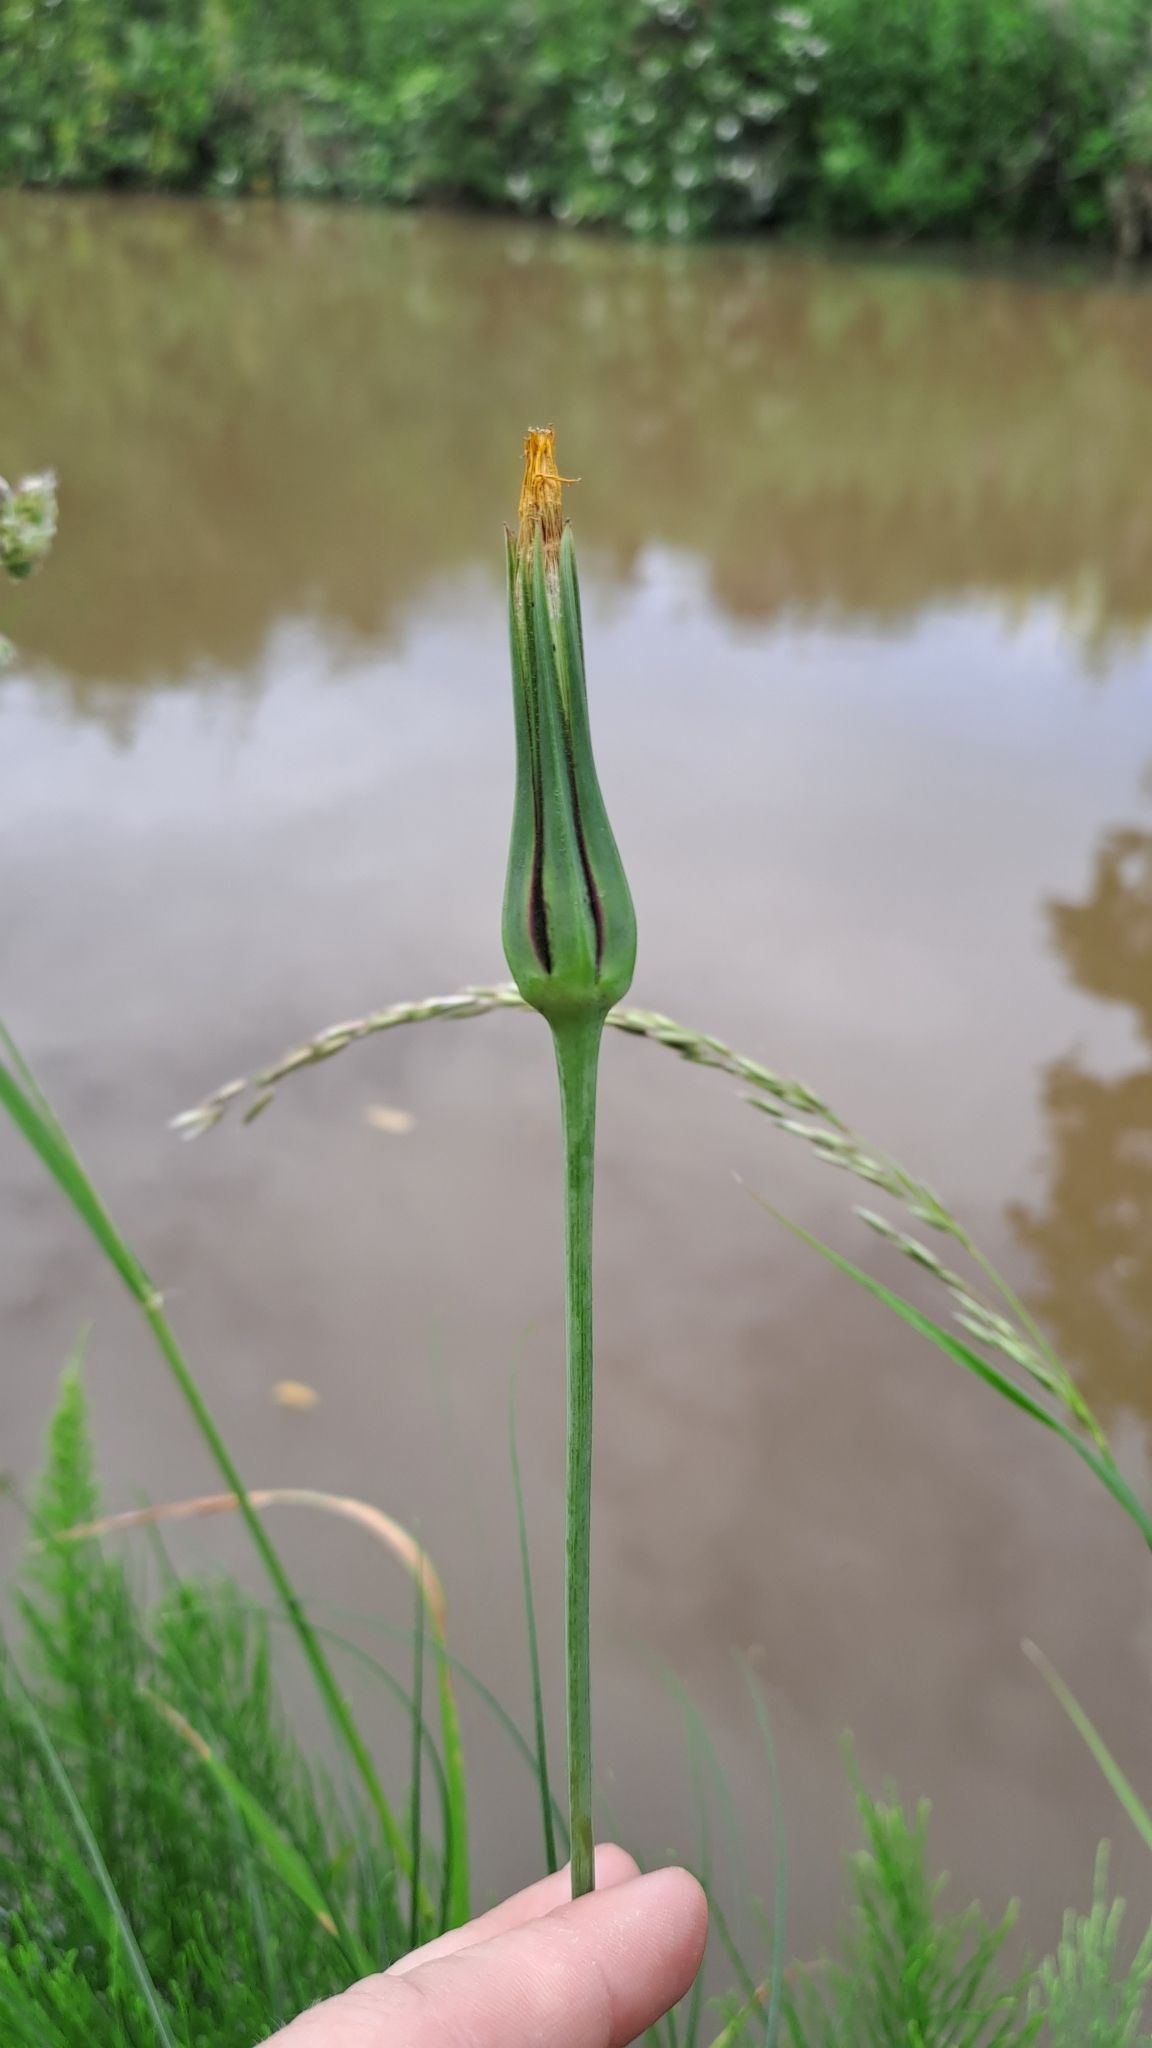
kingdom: Plantae
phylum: Tracheophyta
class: Magnoliopsida
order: Asterales
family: Asteraceae
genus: Tragopogon
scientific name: Tragopogon pratensis
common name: Goat's-beard
